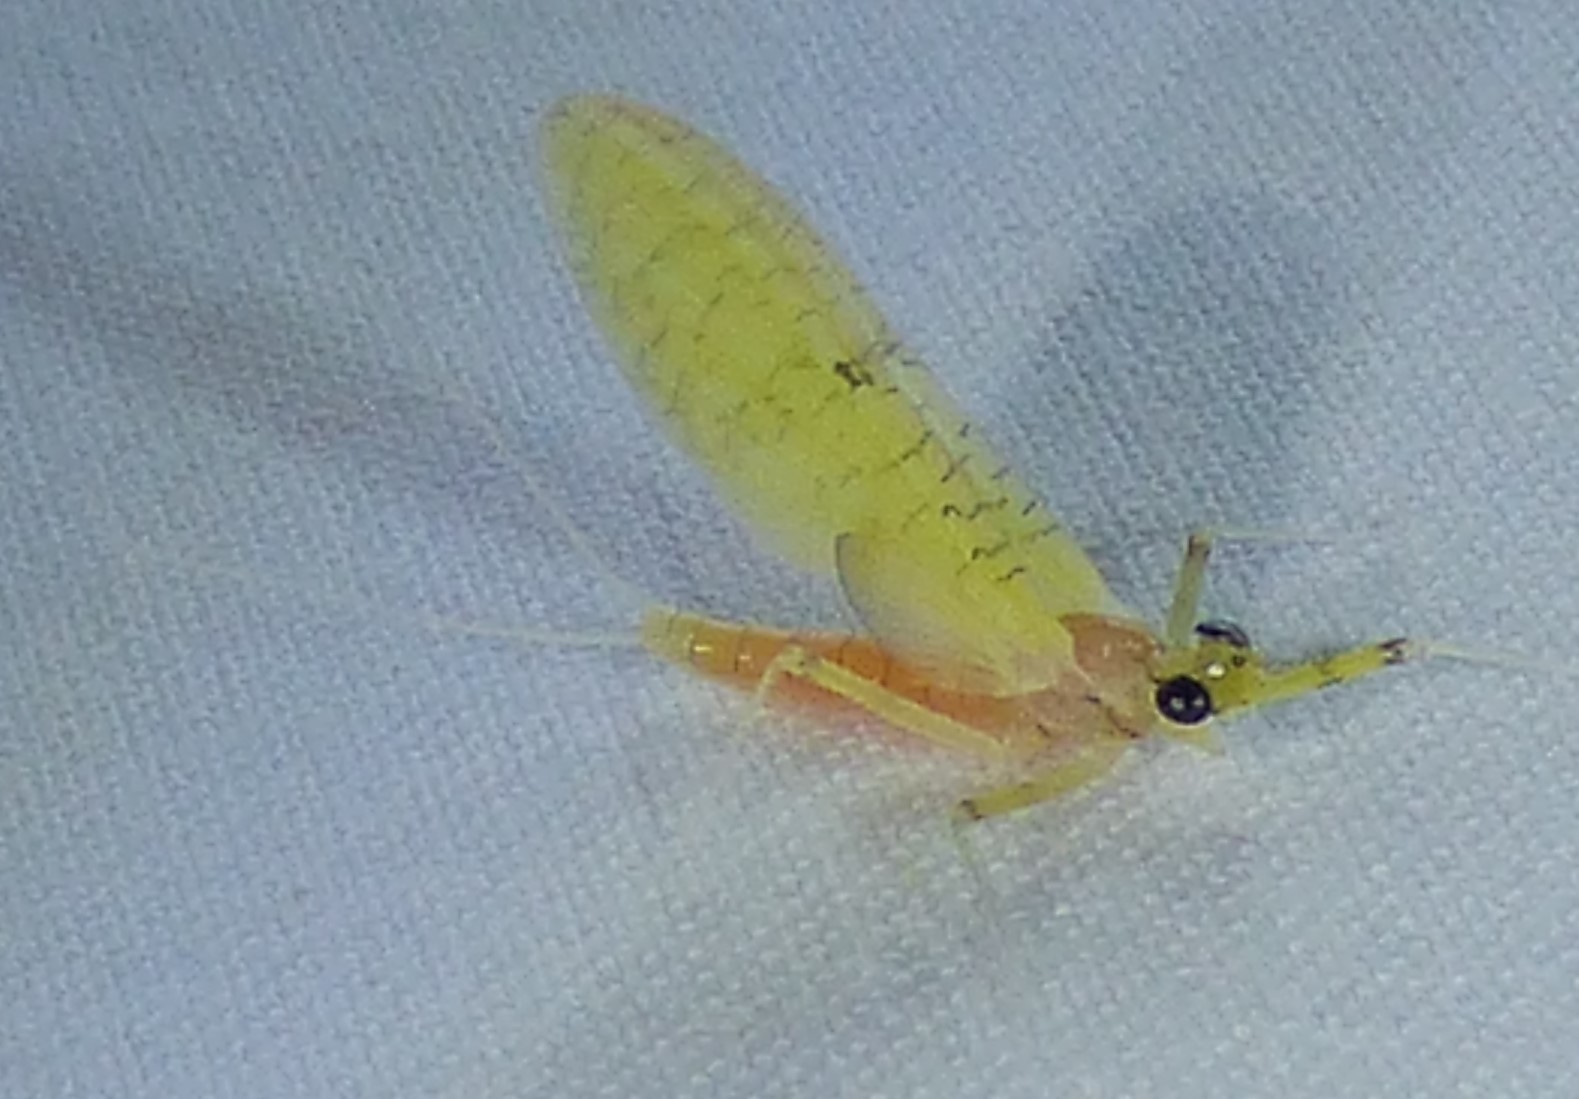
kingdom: Animalia
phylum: Arthropoda
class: Insecta
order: Ephemeroptera
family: Heptageniidae
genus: Stenacron
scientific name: Stenacron interpunctatum
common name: Orange cahill
